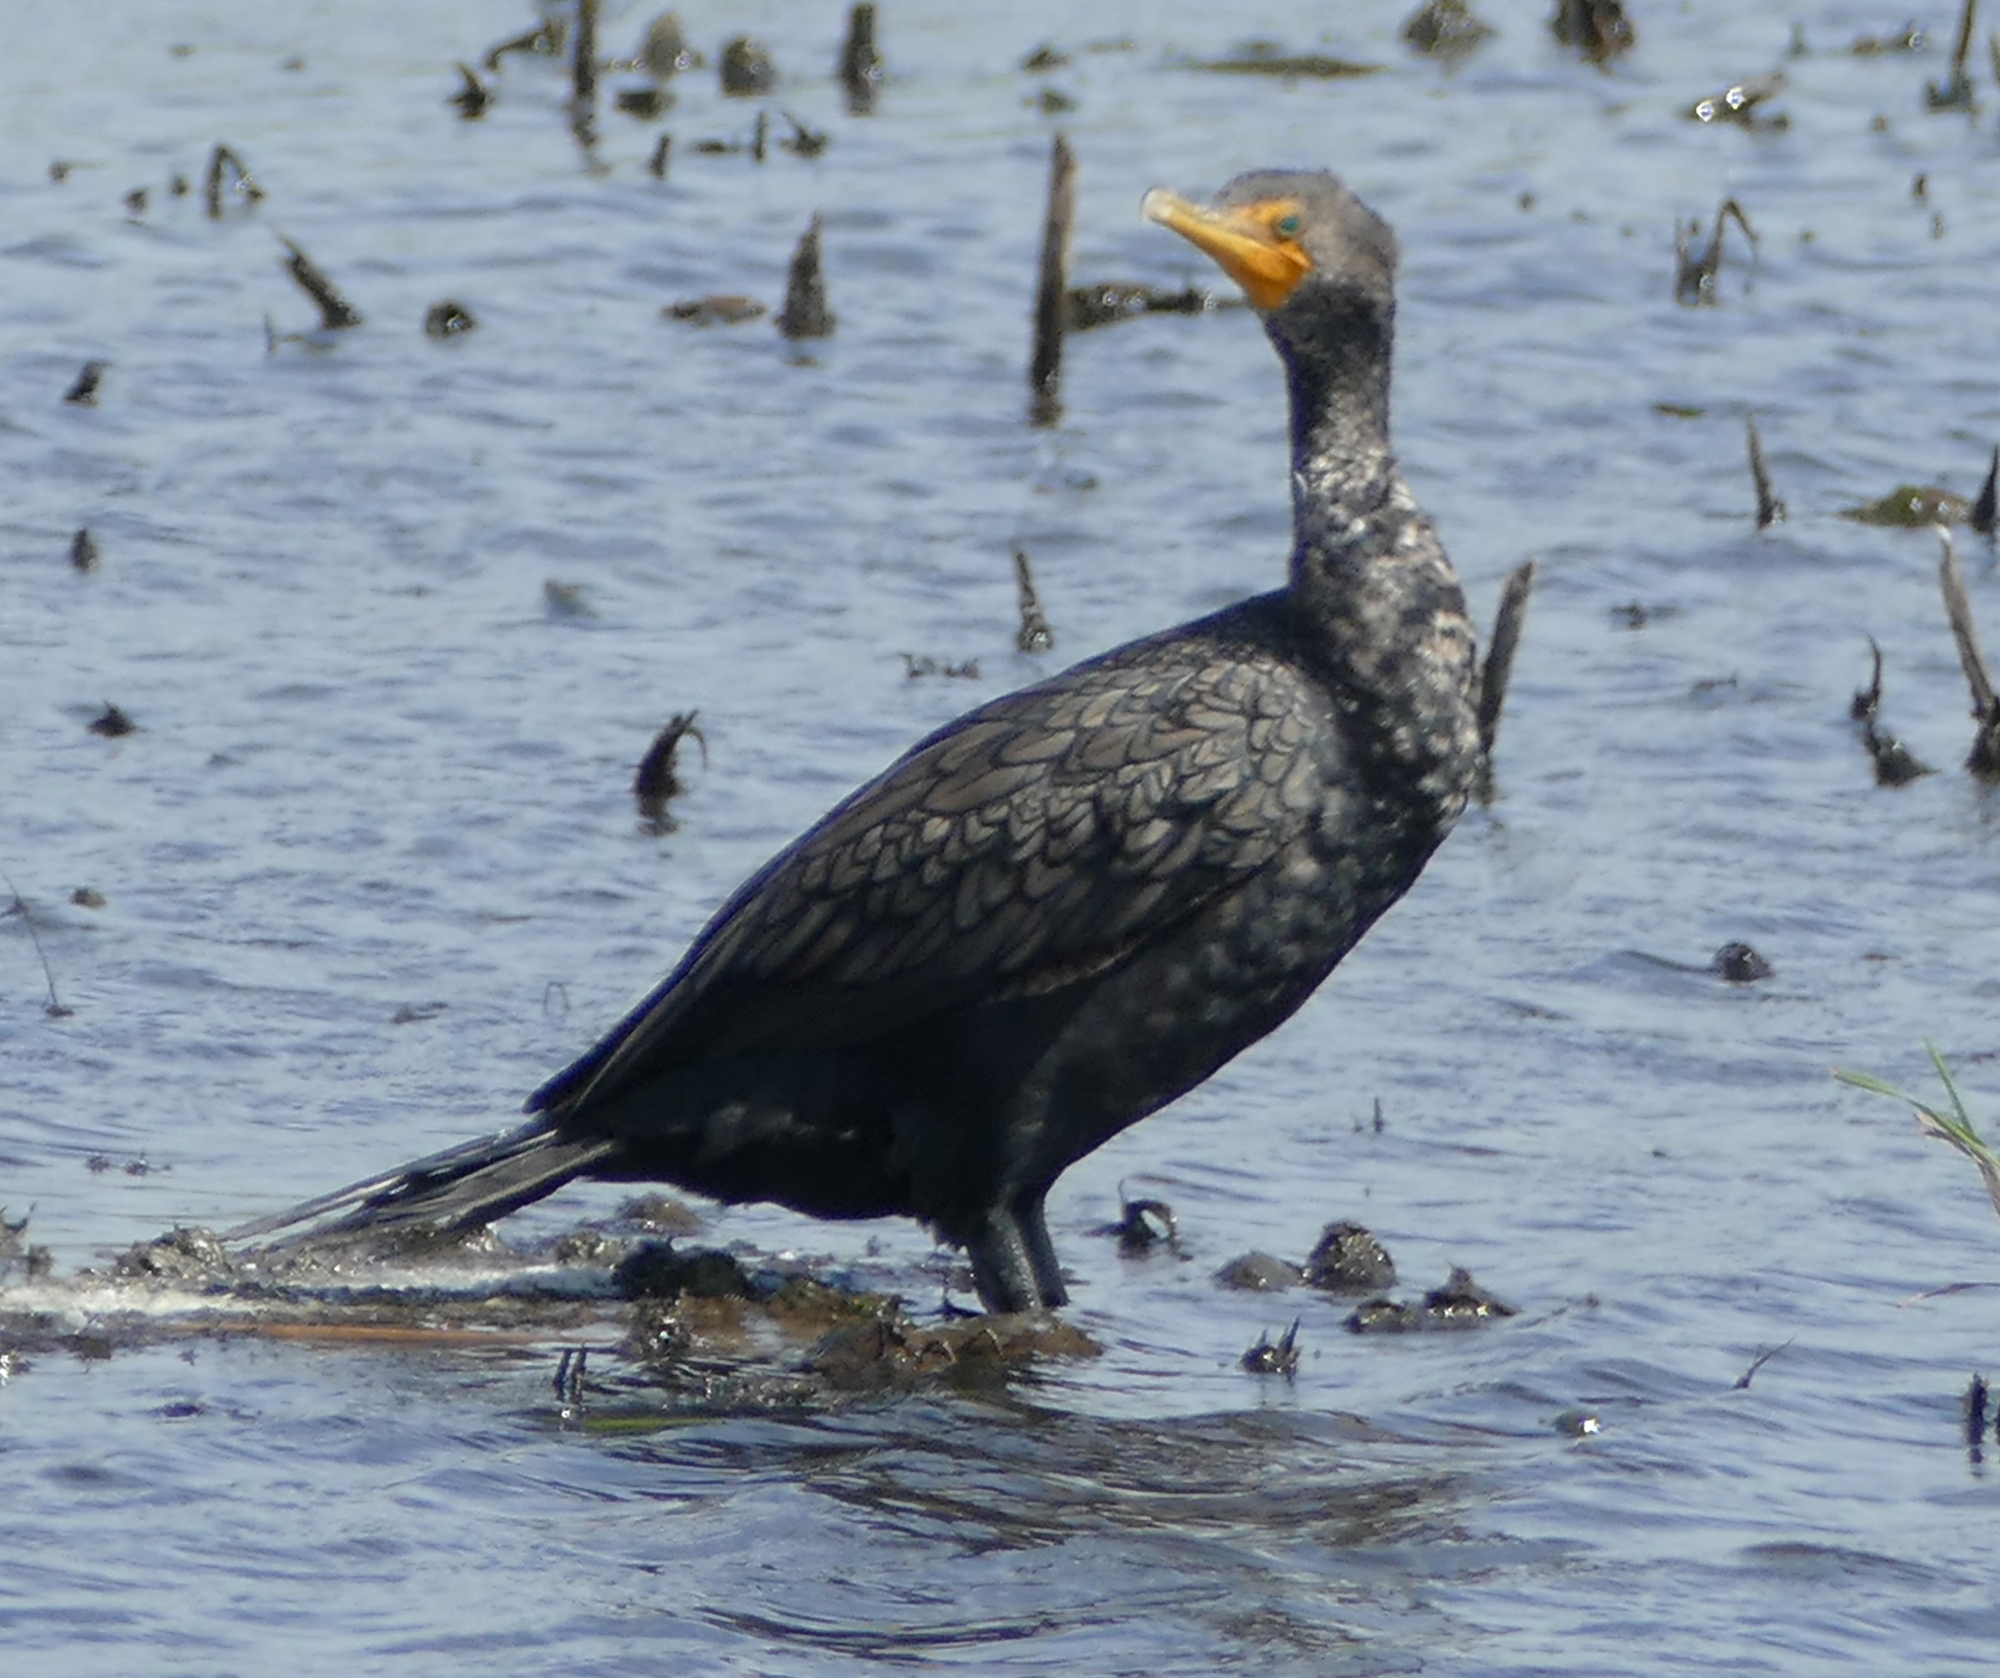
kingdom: Animalia
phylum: Chordata
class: Aves
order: Suliformes
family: Phalacrocoracidae
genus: Phalacrocorax
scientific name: Phalacrocorax auritus
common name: Double-crested cormorant
